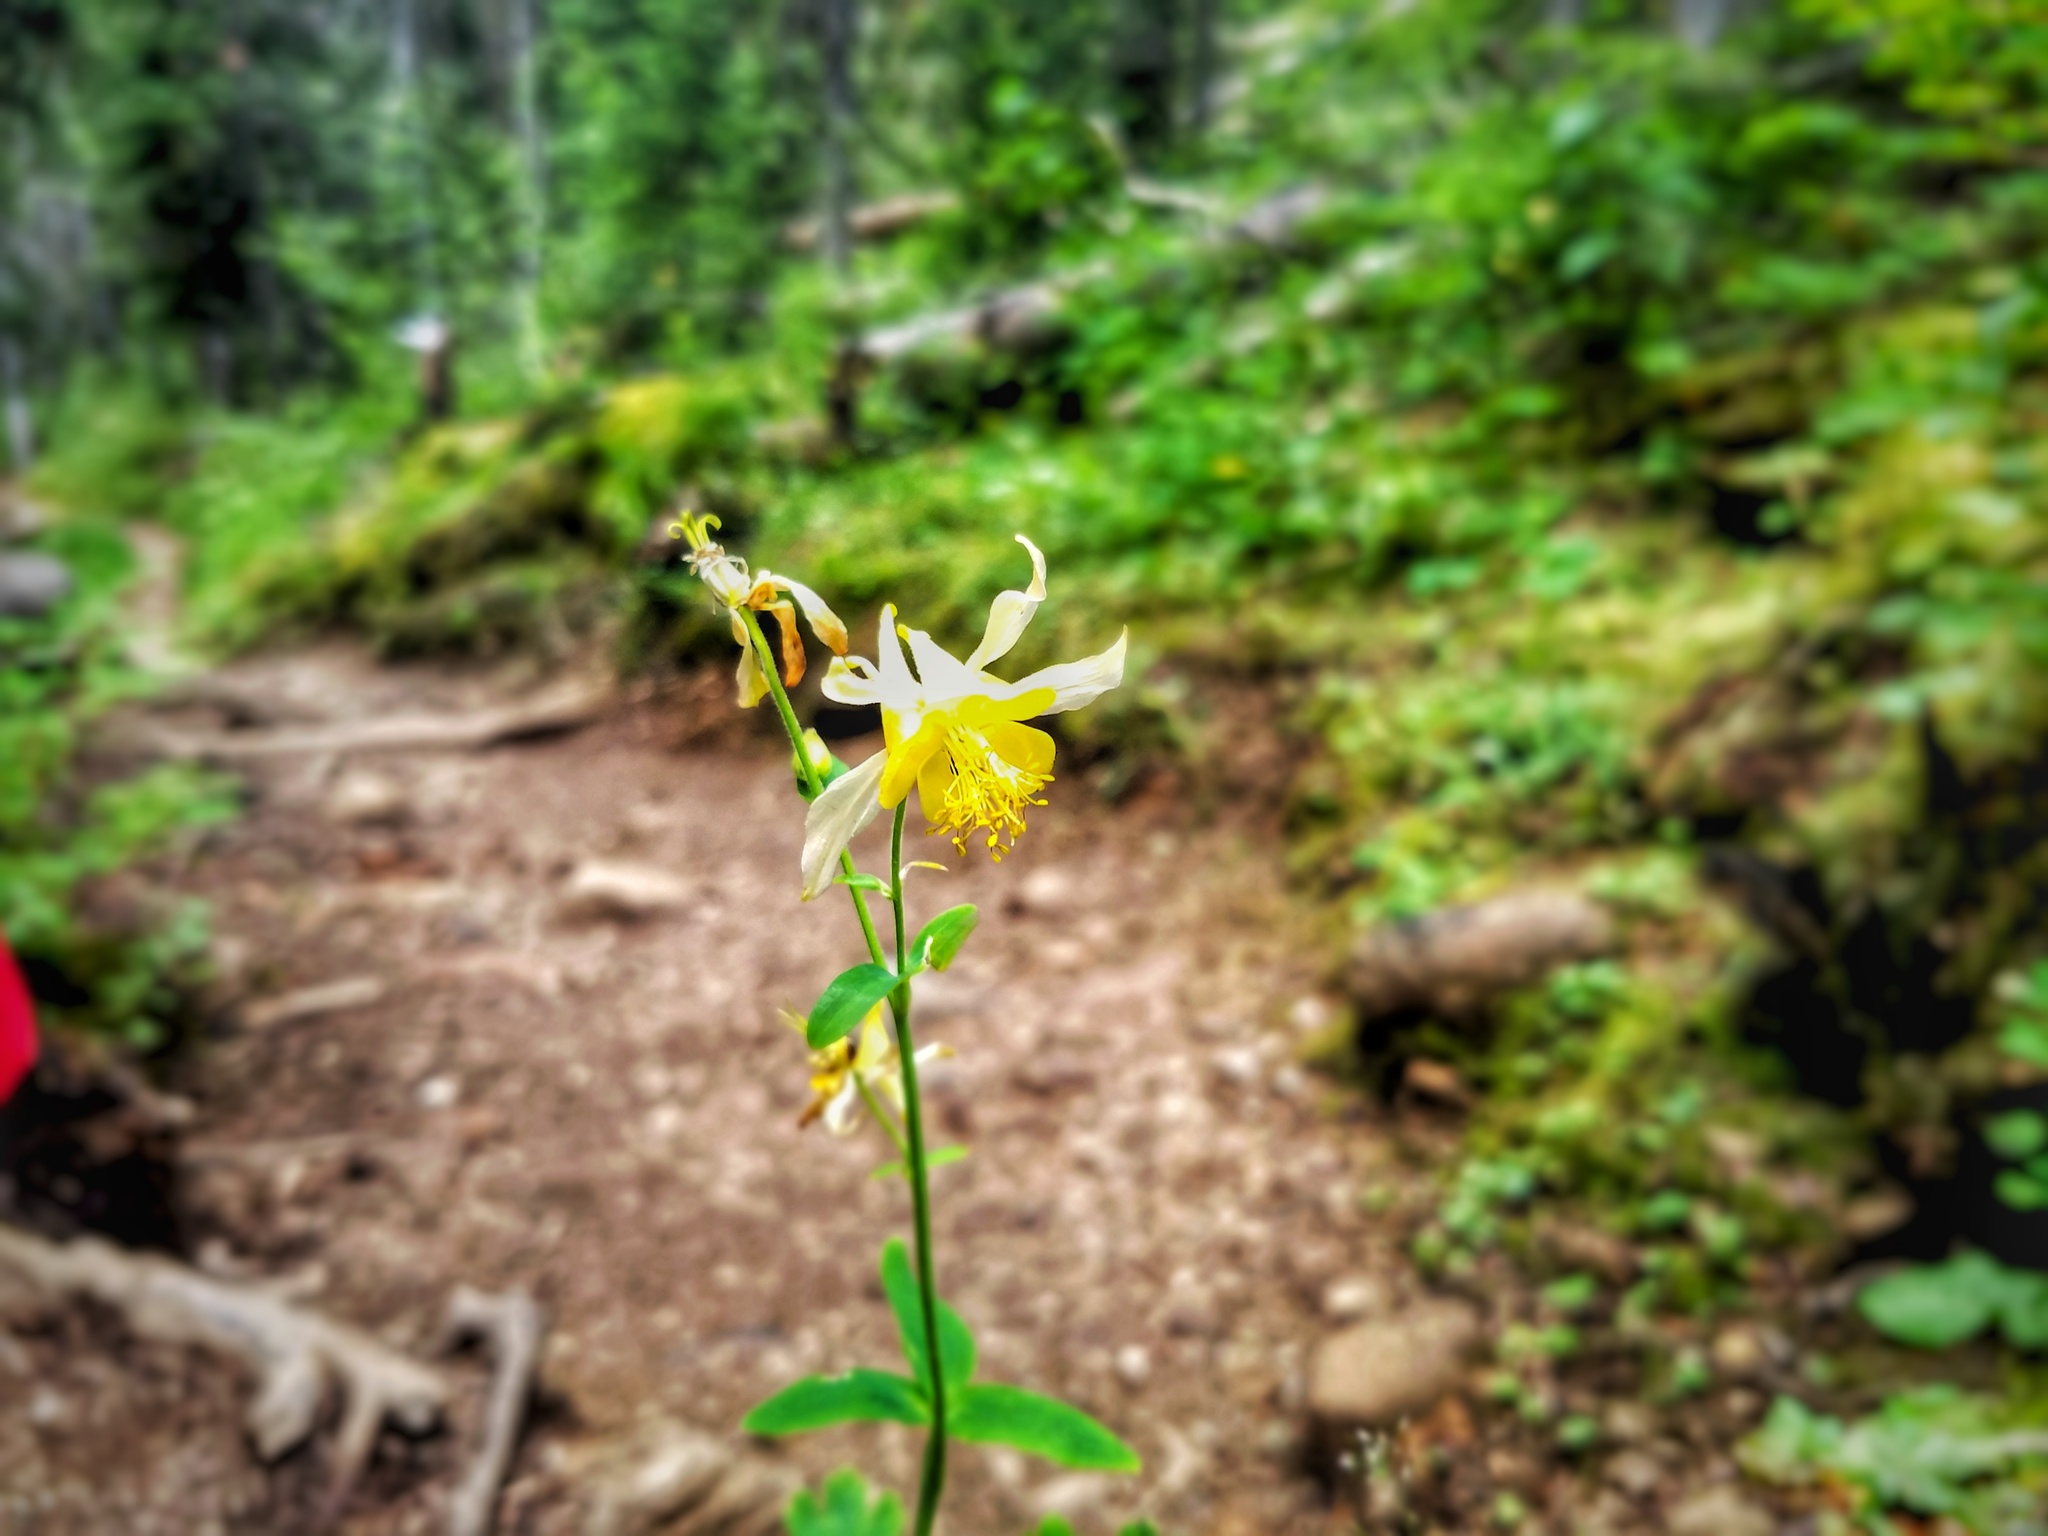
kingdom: Plantae
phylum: Tracheophyta
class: Magnoliopsida
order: Ranunculales
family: Ranunculaceae
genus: Aquilegia
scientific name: Aquilegia flavescens
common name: Yellow columbine
